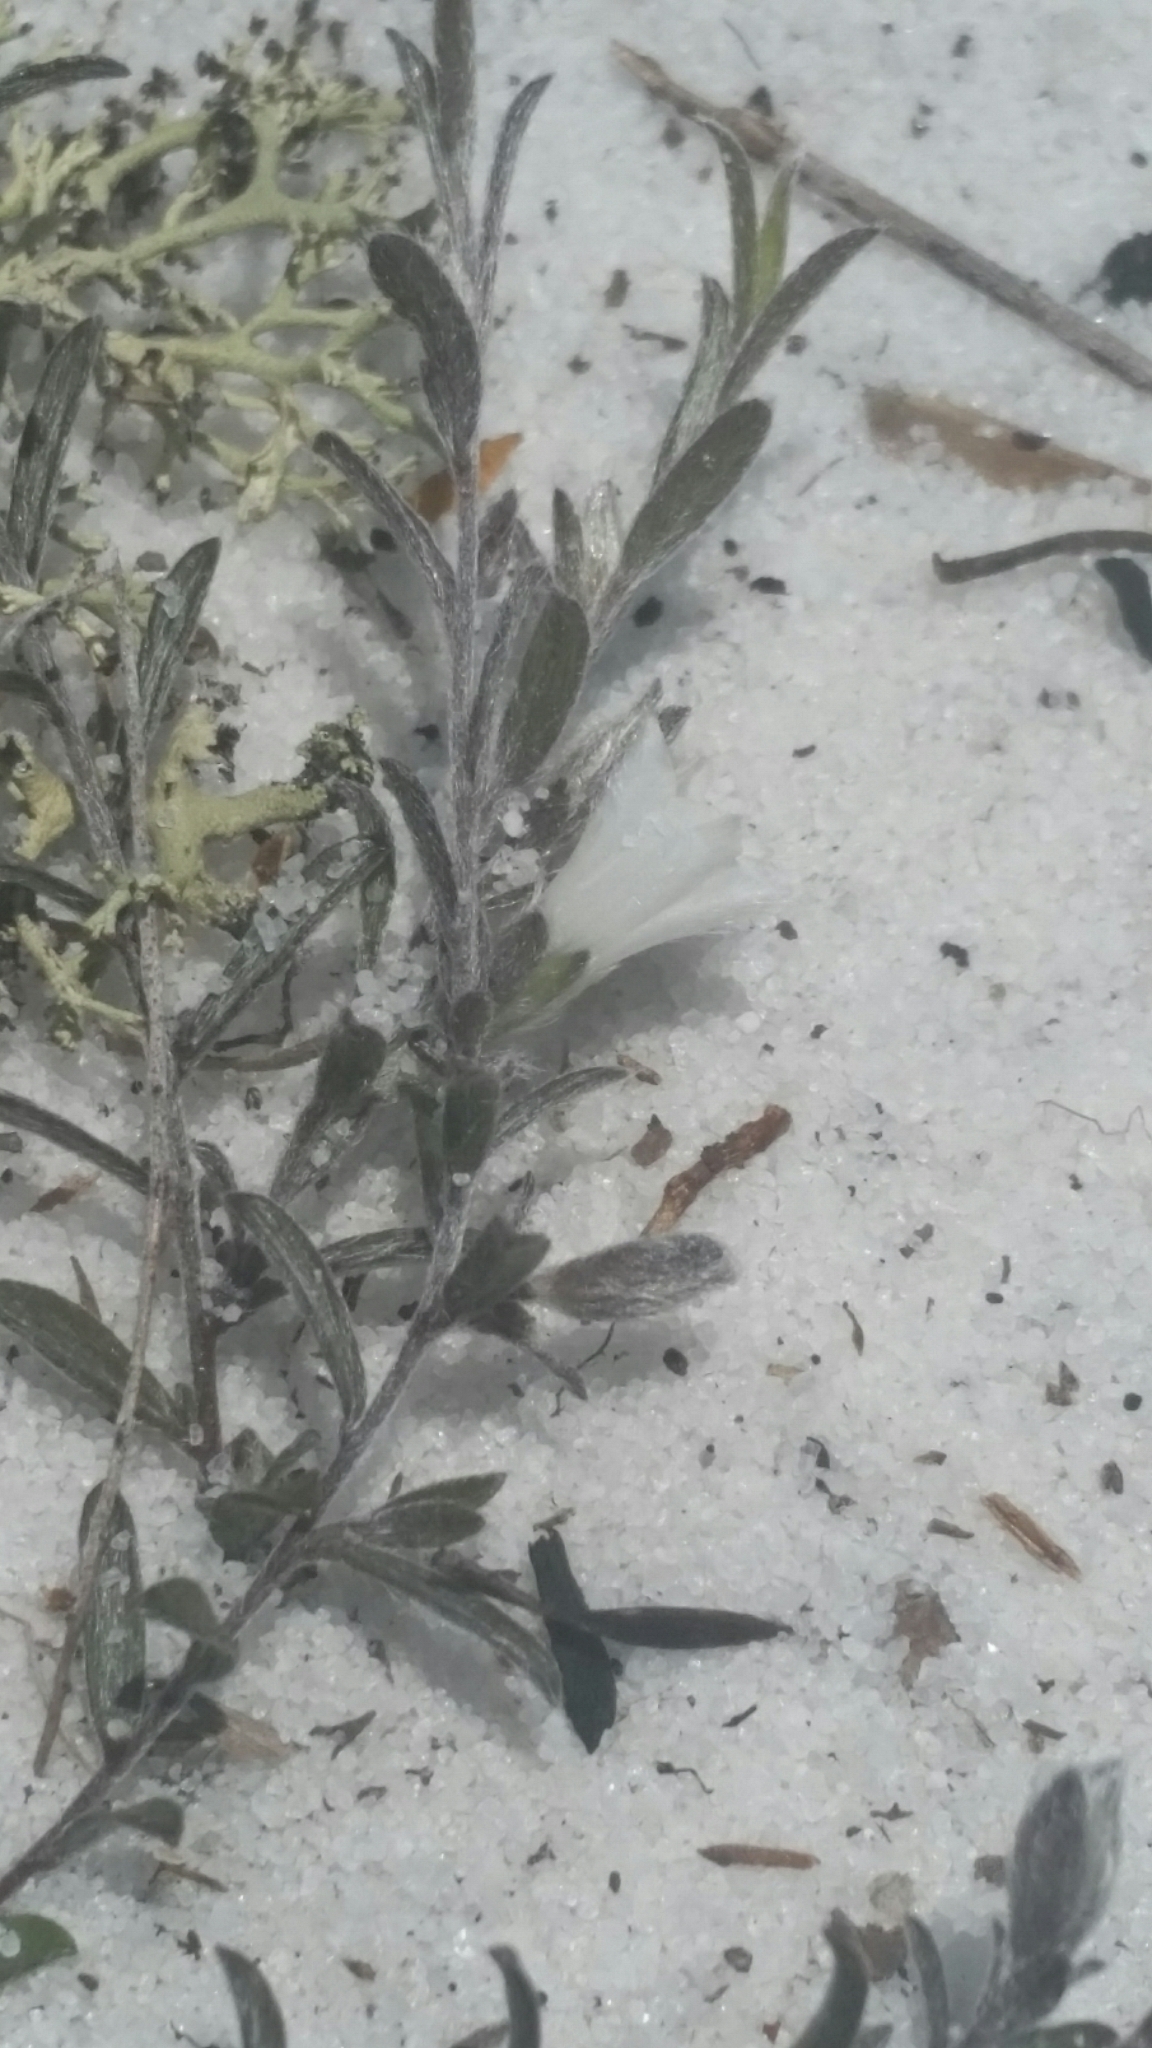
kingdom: Plantae
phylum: Tracheophyta
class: Magnoliopsida
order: Solanales
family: Convolvulaceae
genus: Stylisma
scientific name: Stylisma abdita
